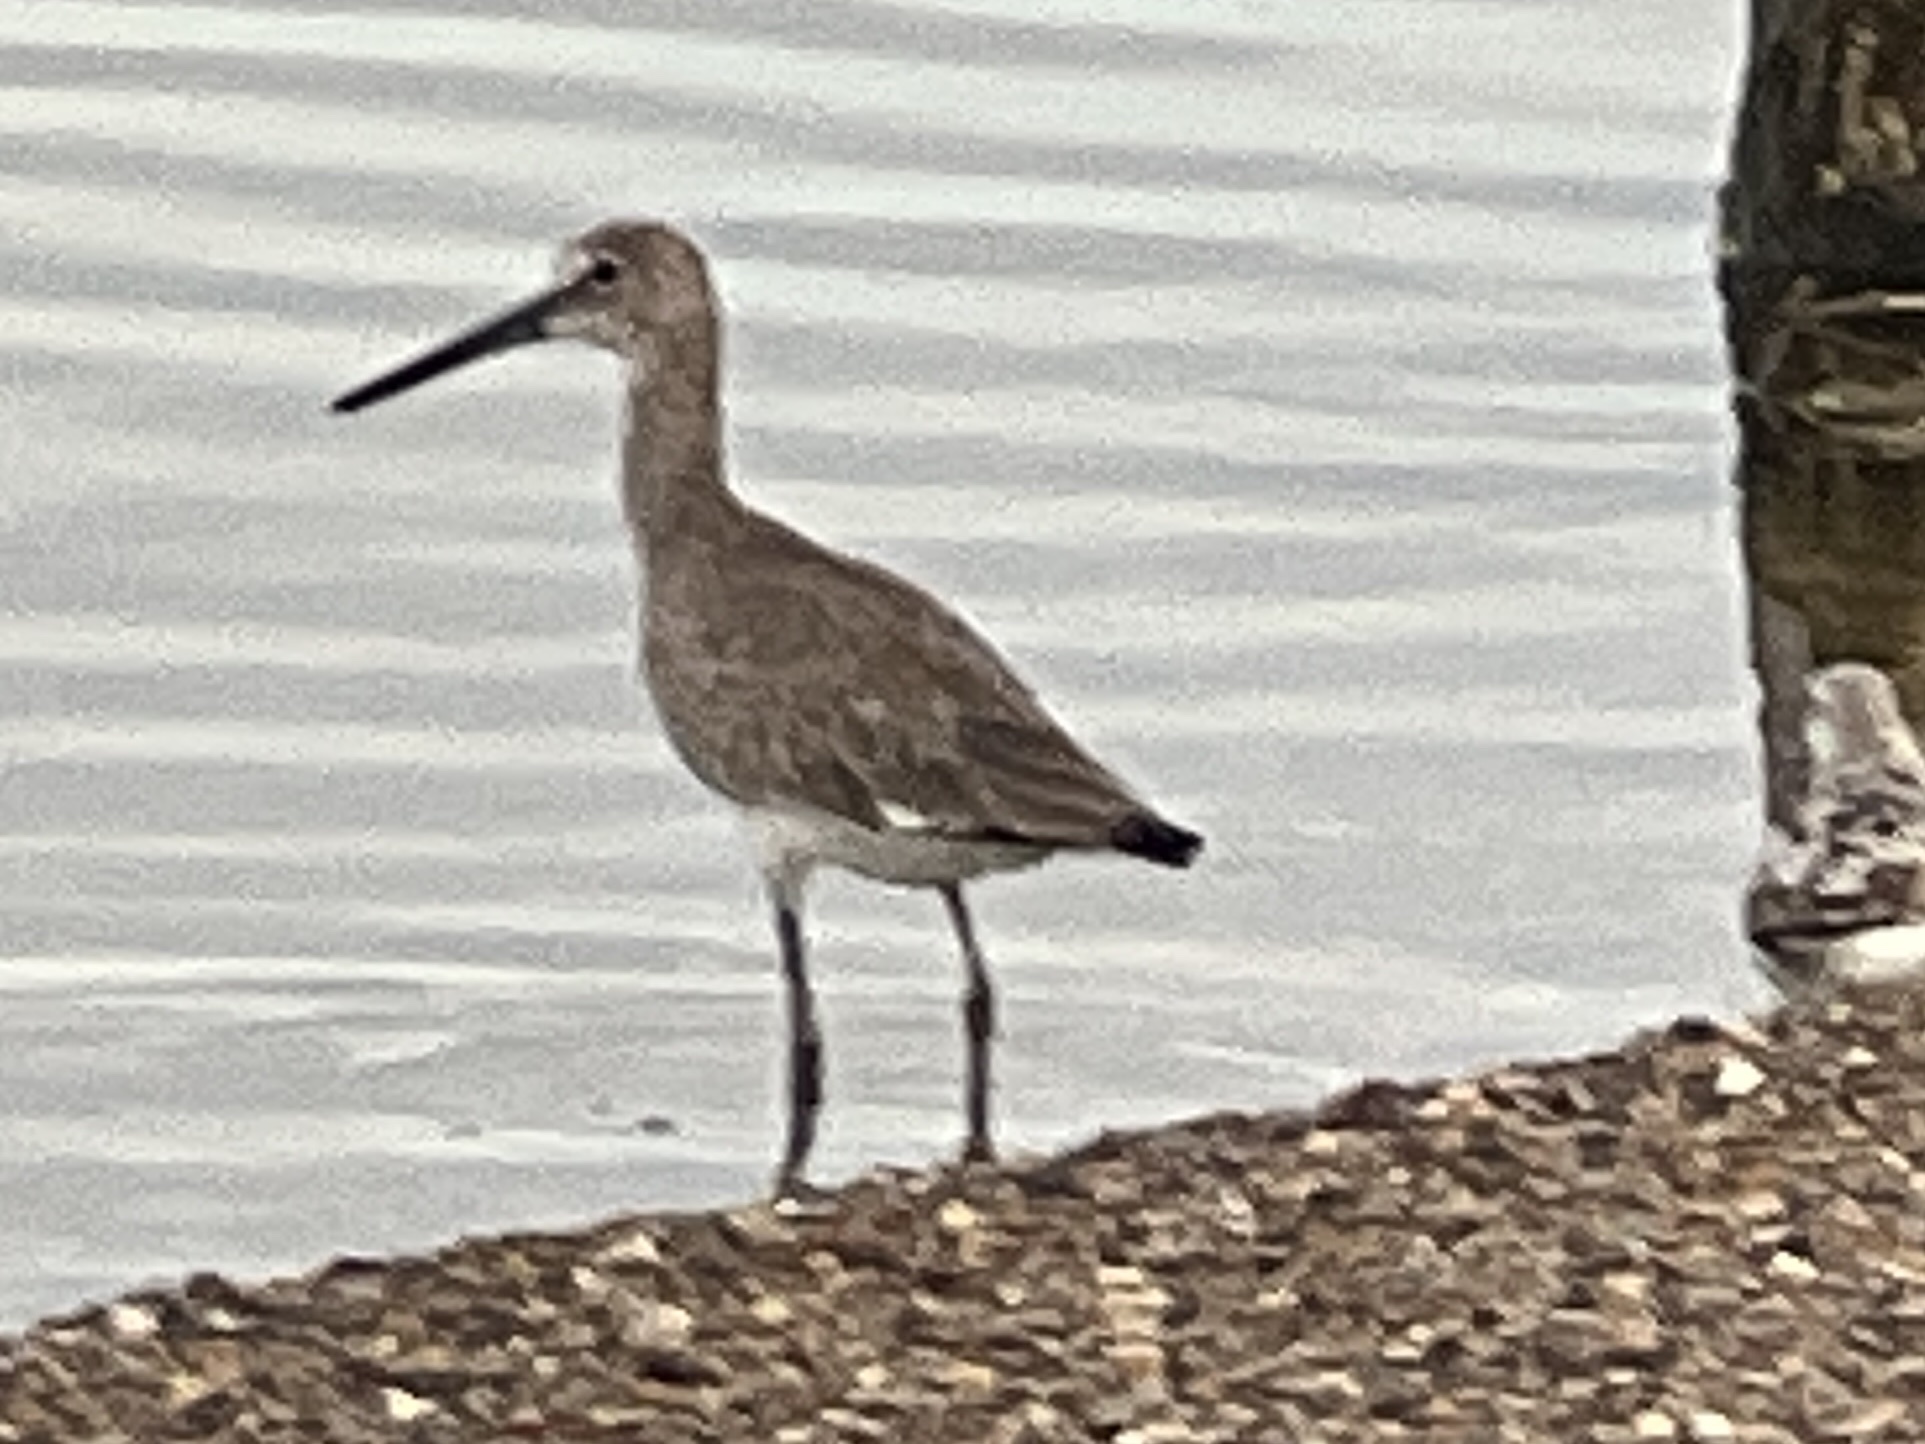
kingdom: Animalia
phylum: Chordata
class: Aves
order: Charadriiformes
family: Scolopacidae
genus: Tringa
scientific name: Tringa semipalmata
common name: Willet
